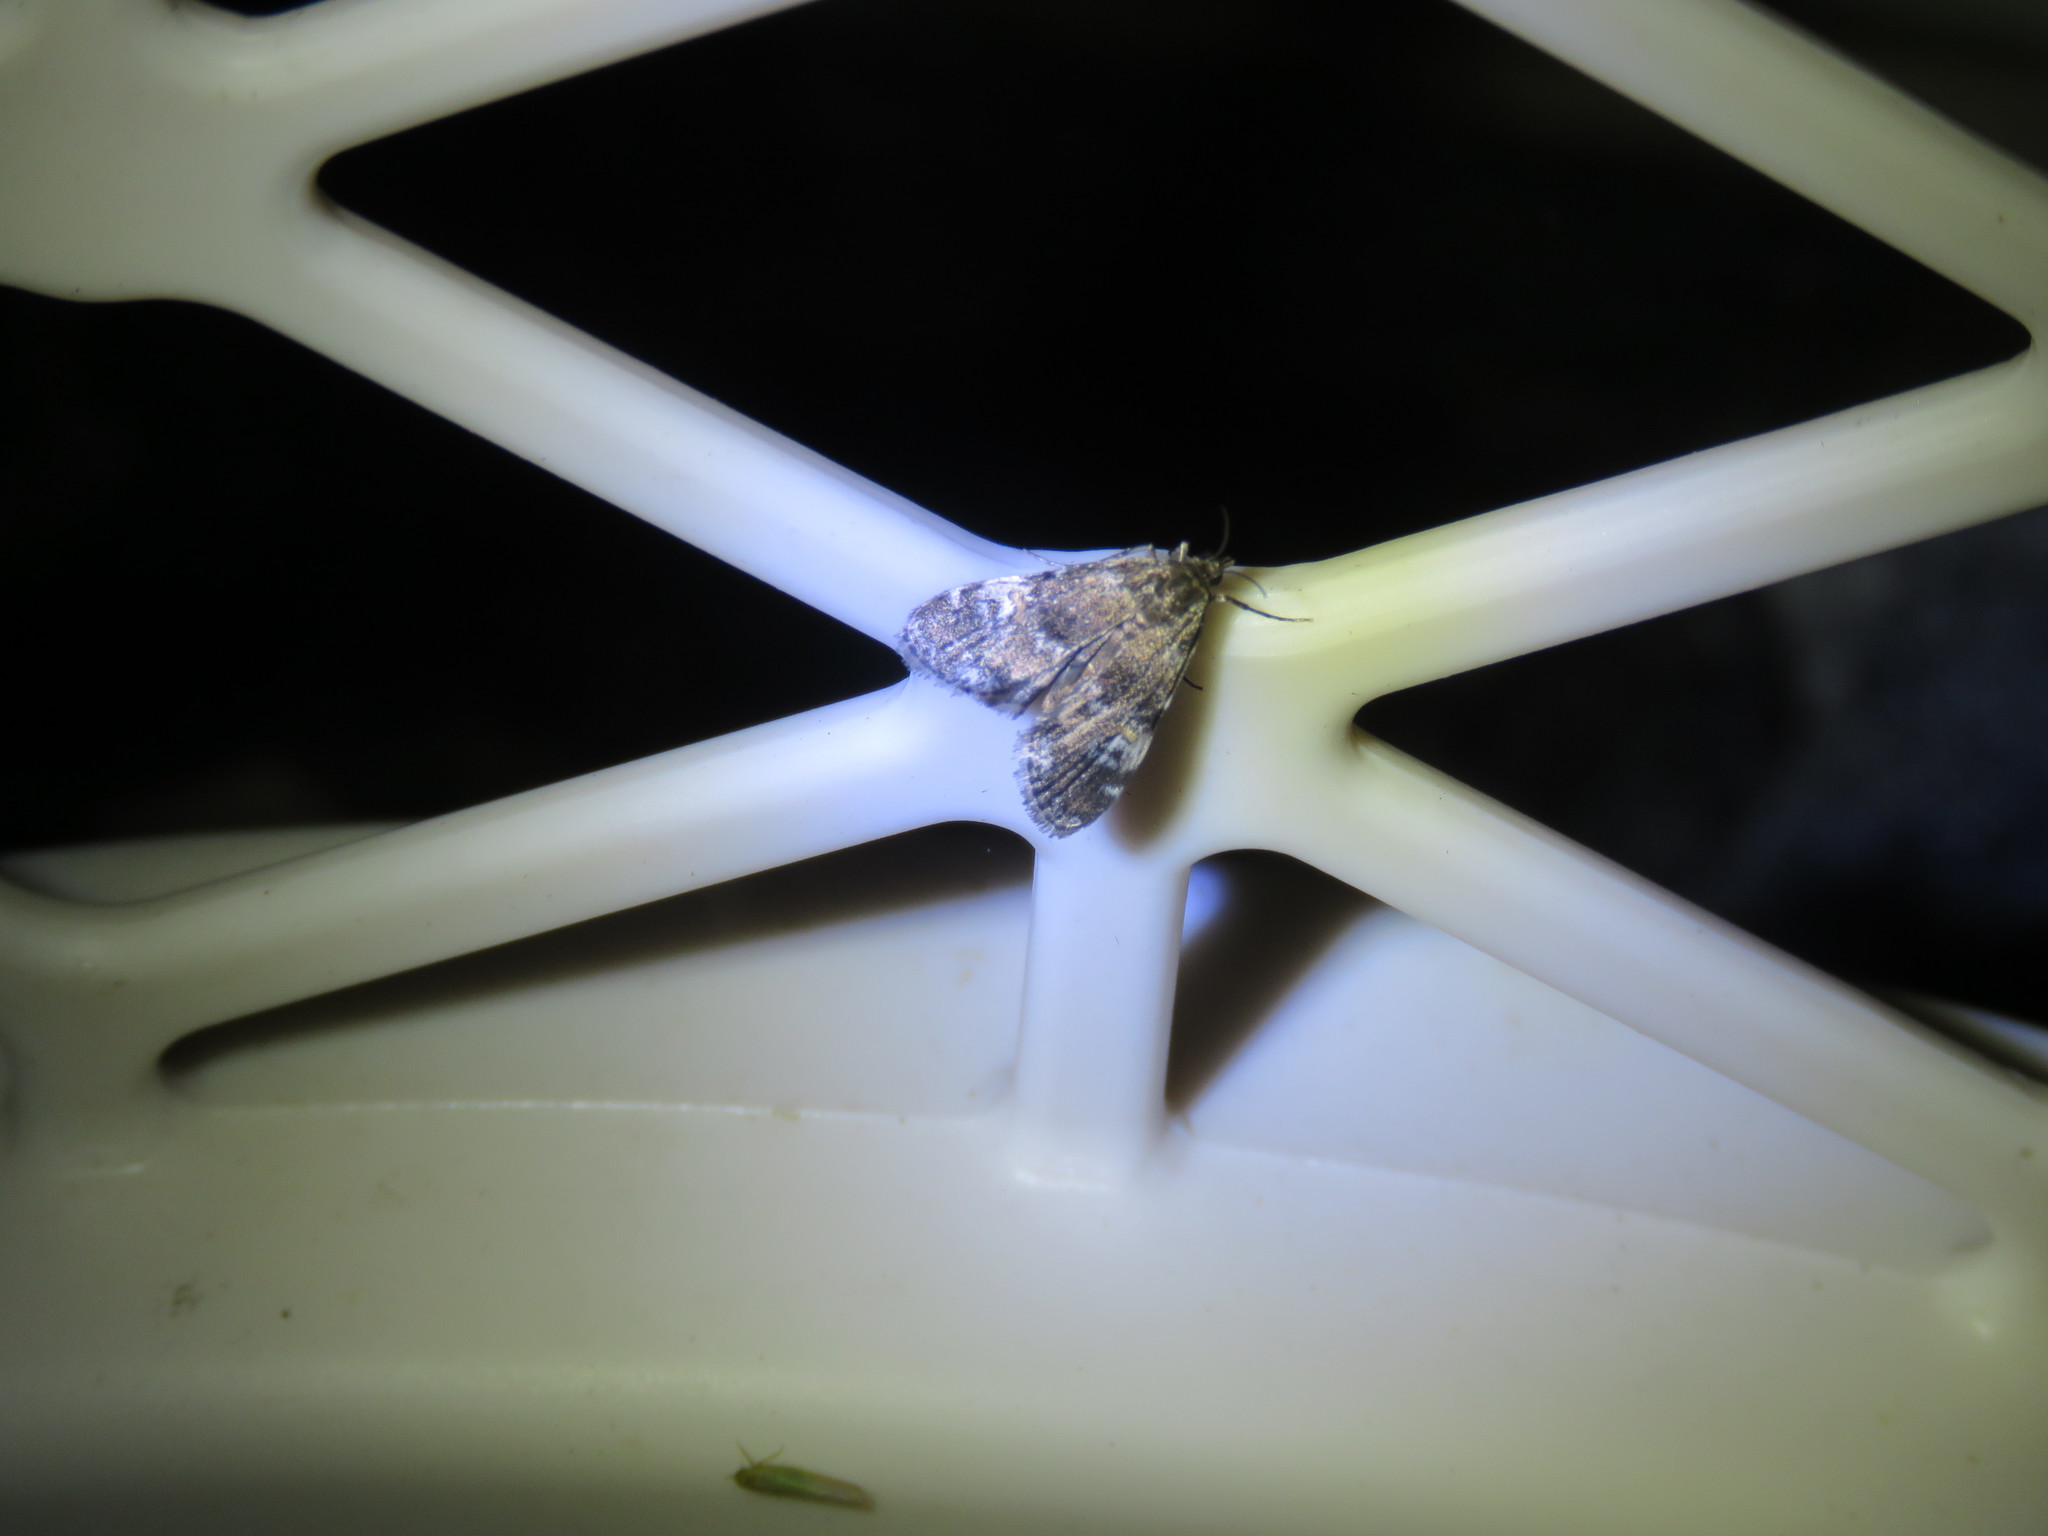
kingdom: Animalia
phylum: Arthropoda
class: Insecta
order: Lepidoptera
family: Crambidae
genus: Elophila
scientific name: Elophila obliteralis
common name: Waterlily leafcutter moth
